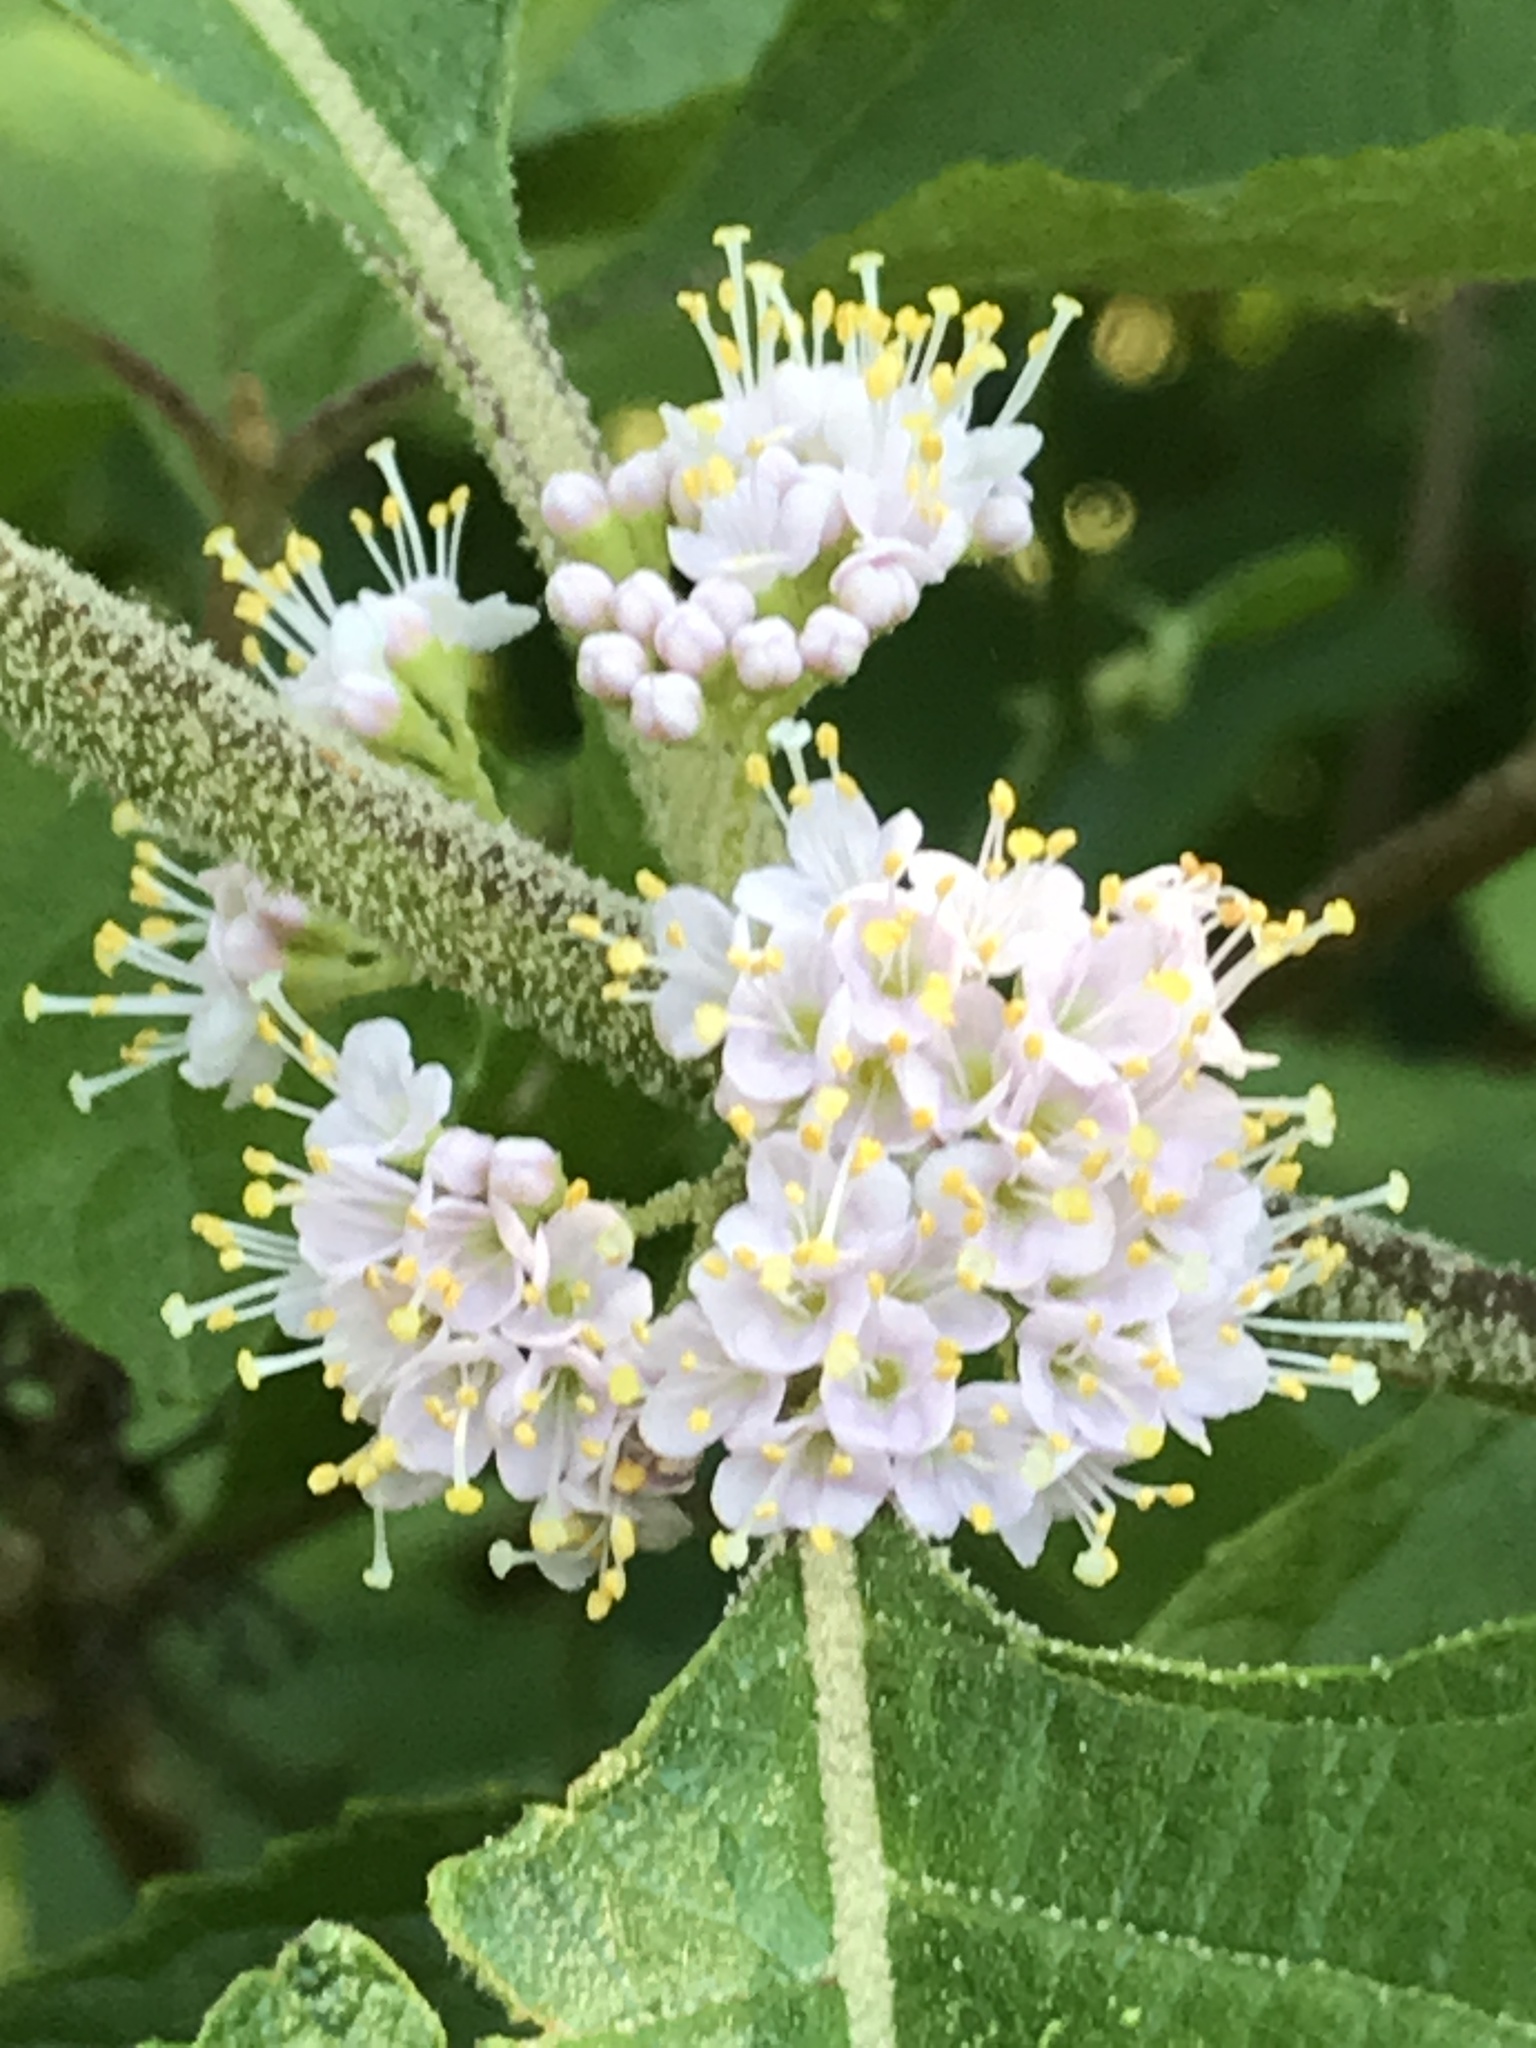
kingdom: Plantae
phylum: Tracheophyta
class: Magnoliopsida
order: Lamiales
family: Lamiaceae
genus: Callicarpa
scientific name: Callicarpa americana
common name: American beautyberry
